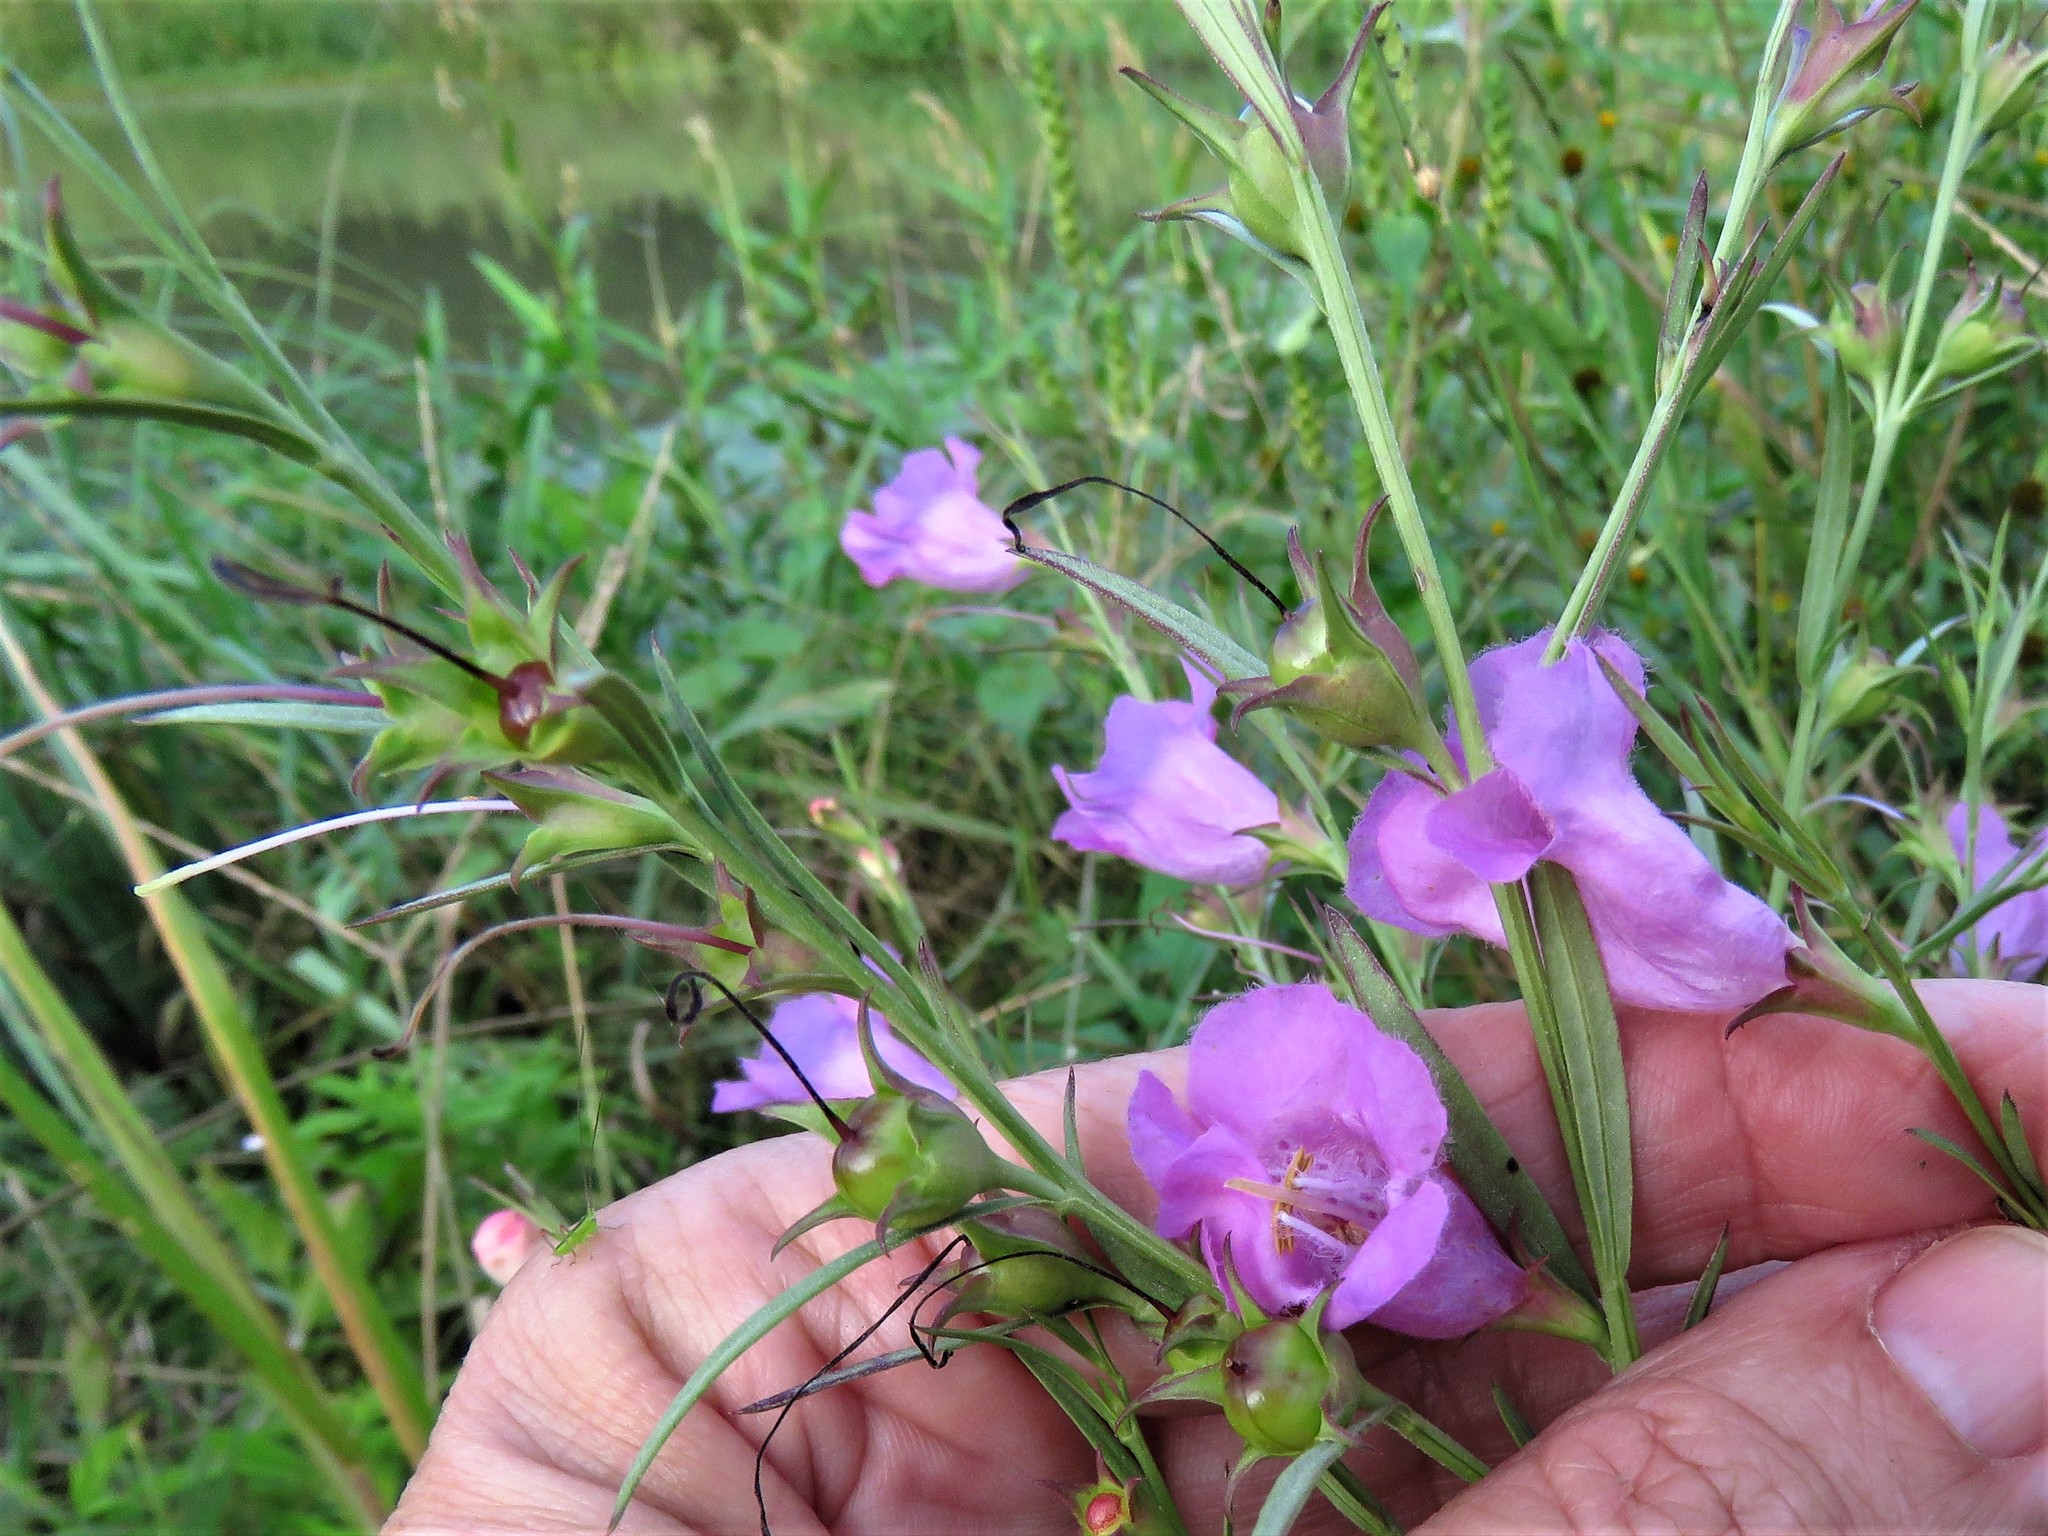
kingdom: Plantae
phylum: Tracheophyta
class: Magnoliopsida
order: Lamiales
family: Orobanchaceae
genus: Agalinis
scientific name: Agalinis heterophylla
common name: Prairie agalinis
